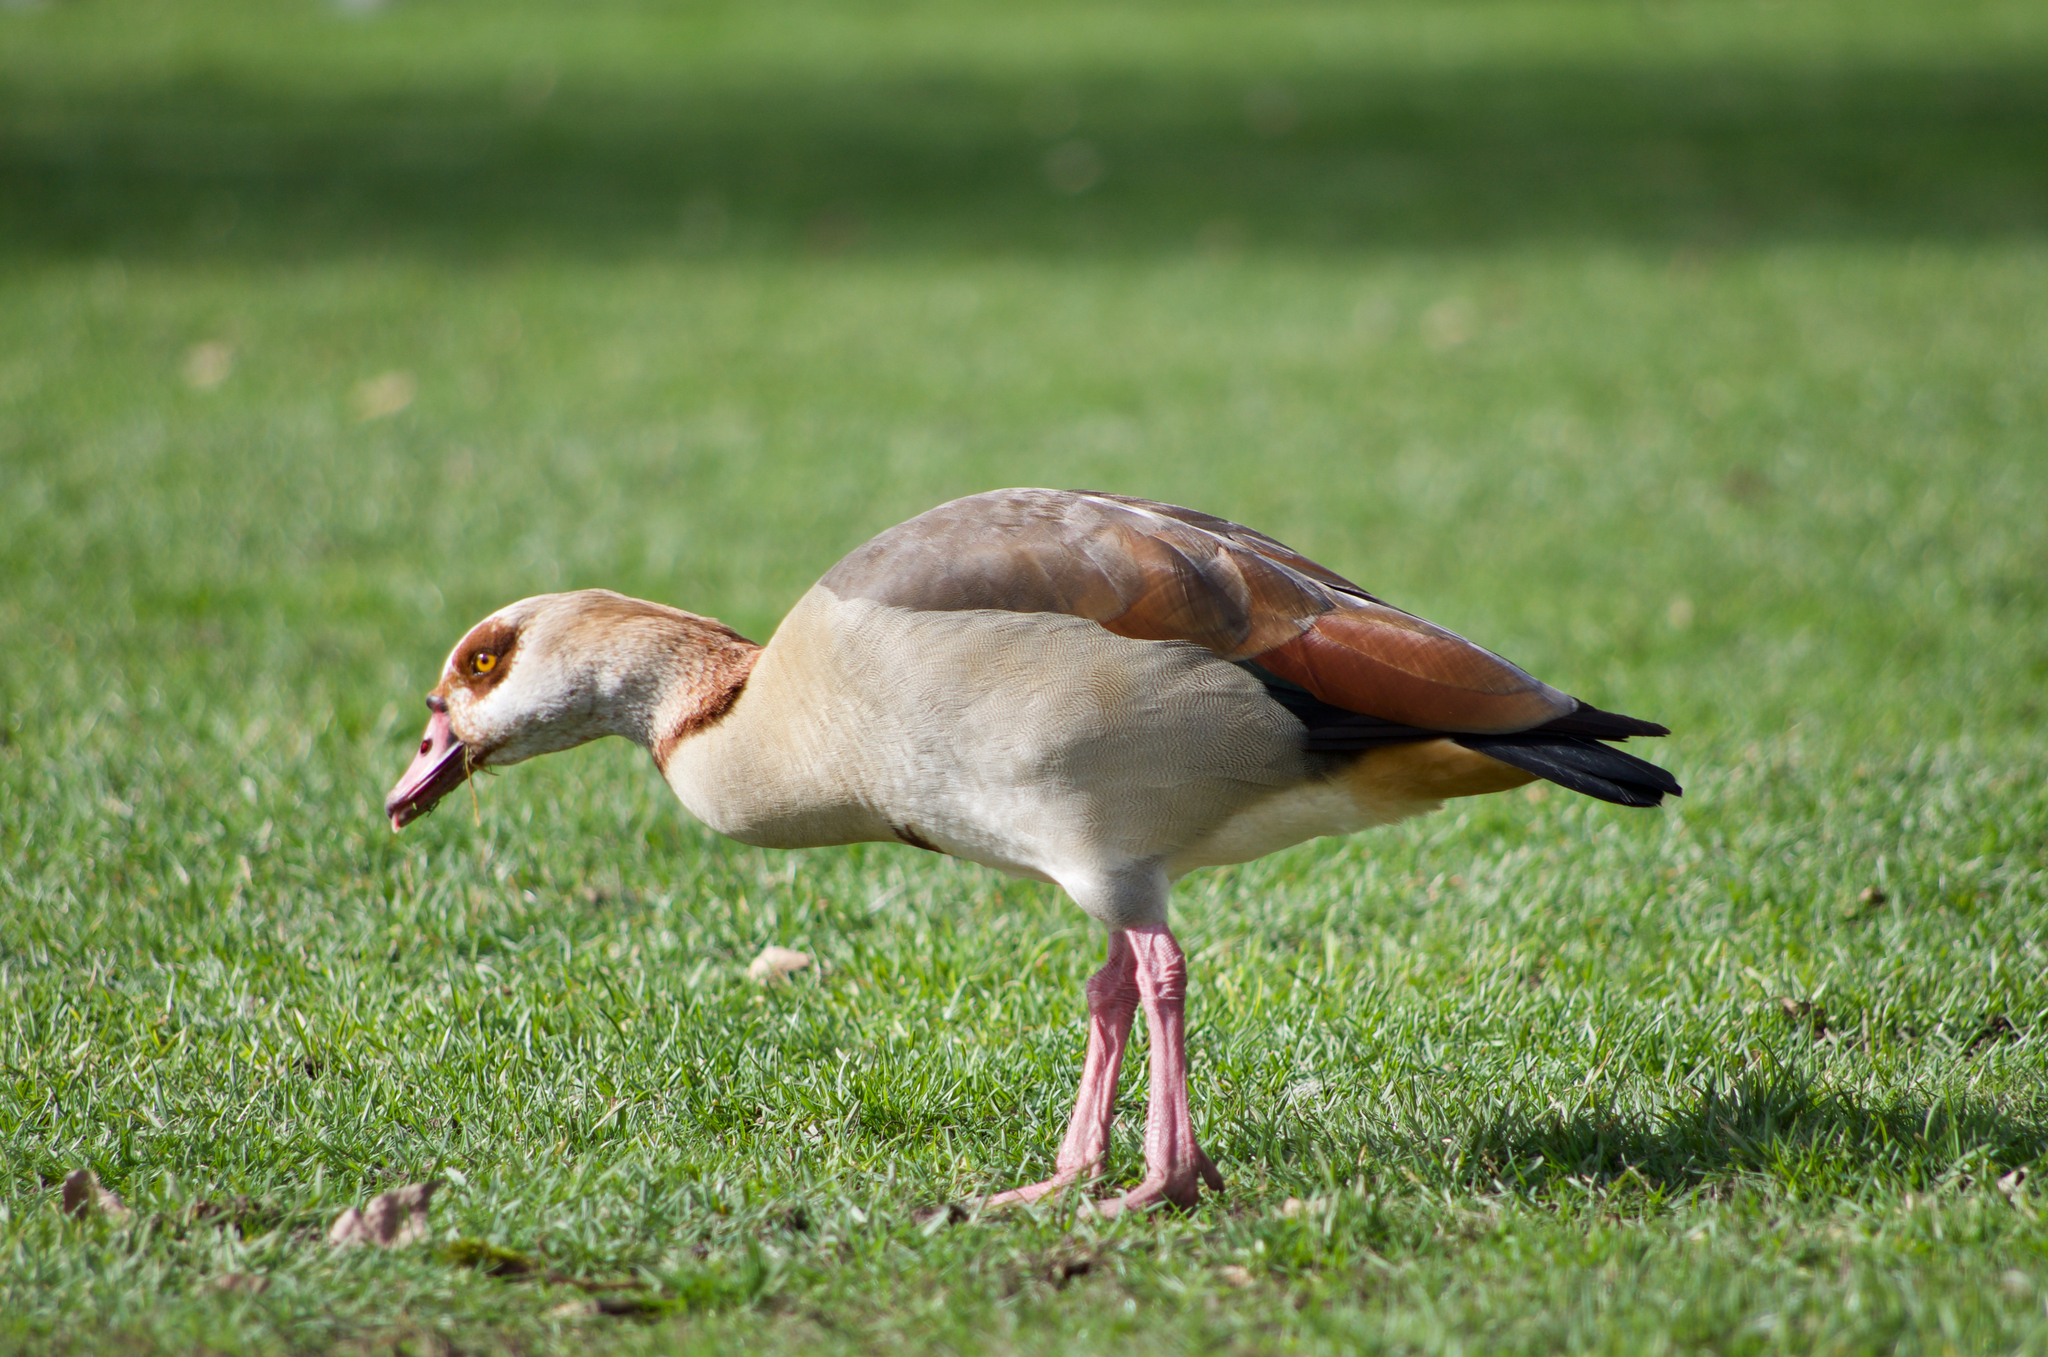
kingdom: Animalia
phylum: Chordata
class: Aves
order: Anseriformes
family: Anatidae
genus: Alopochen
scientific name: Alopochen aegyptiaca
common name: Egyptian goose
